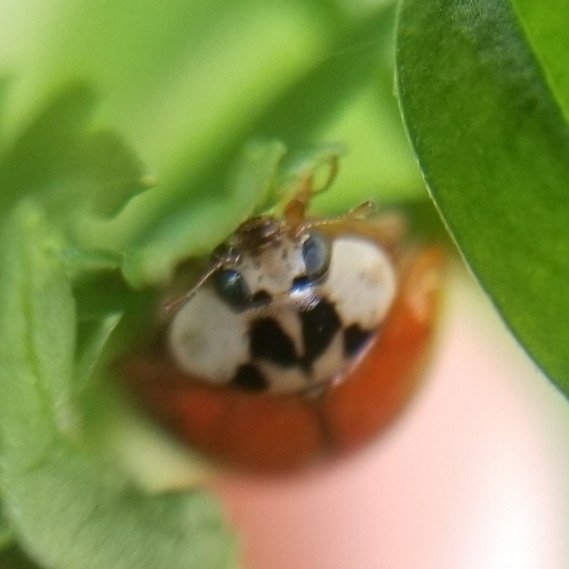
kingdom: Animalia
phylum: Arthropoda
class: Insecta
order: Coleoptera
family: Coccinellidae
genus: Harmonia
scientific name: Harmonia axyridis
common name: Harlequin ladybird
